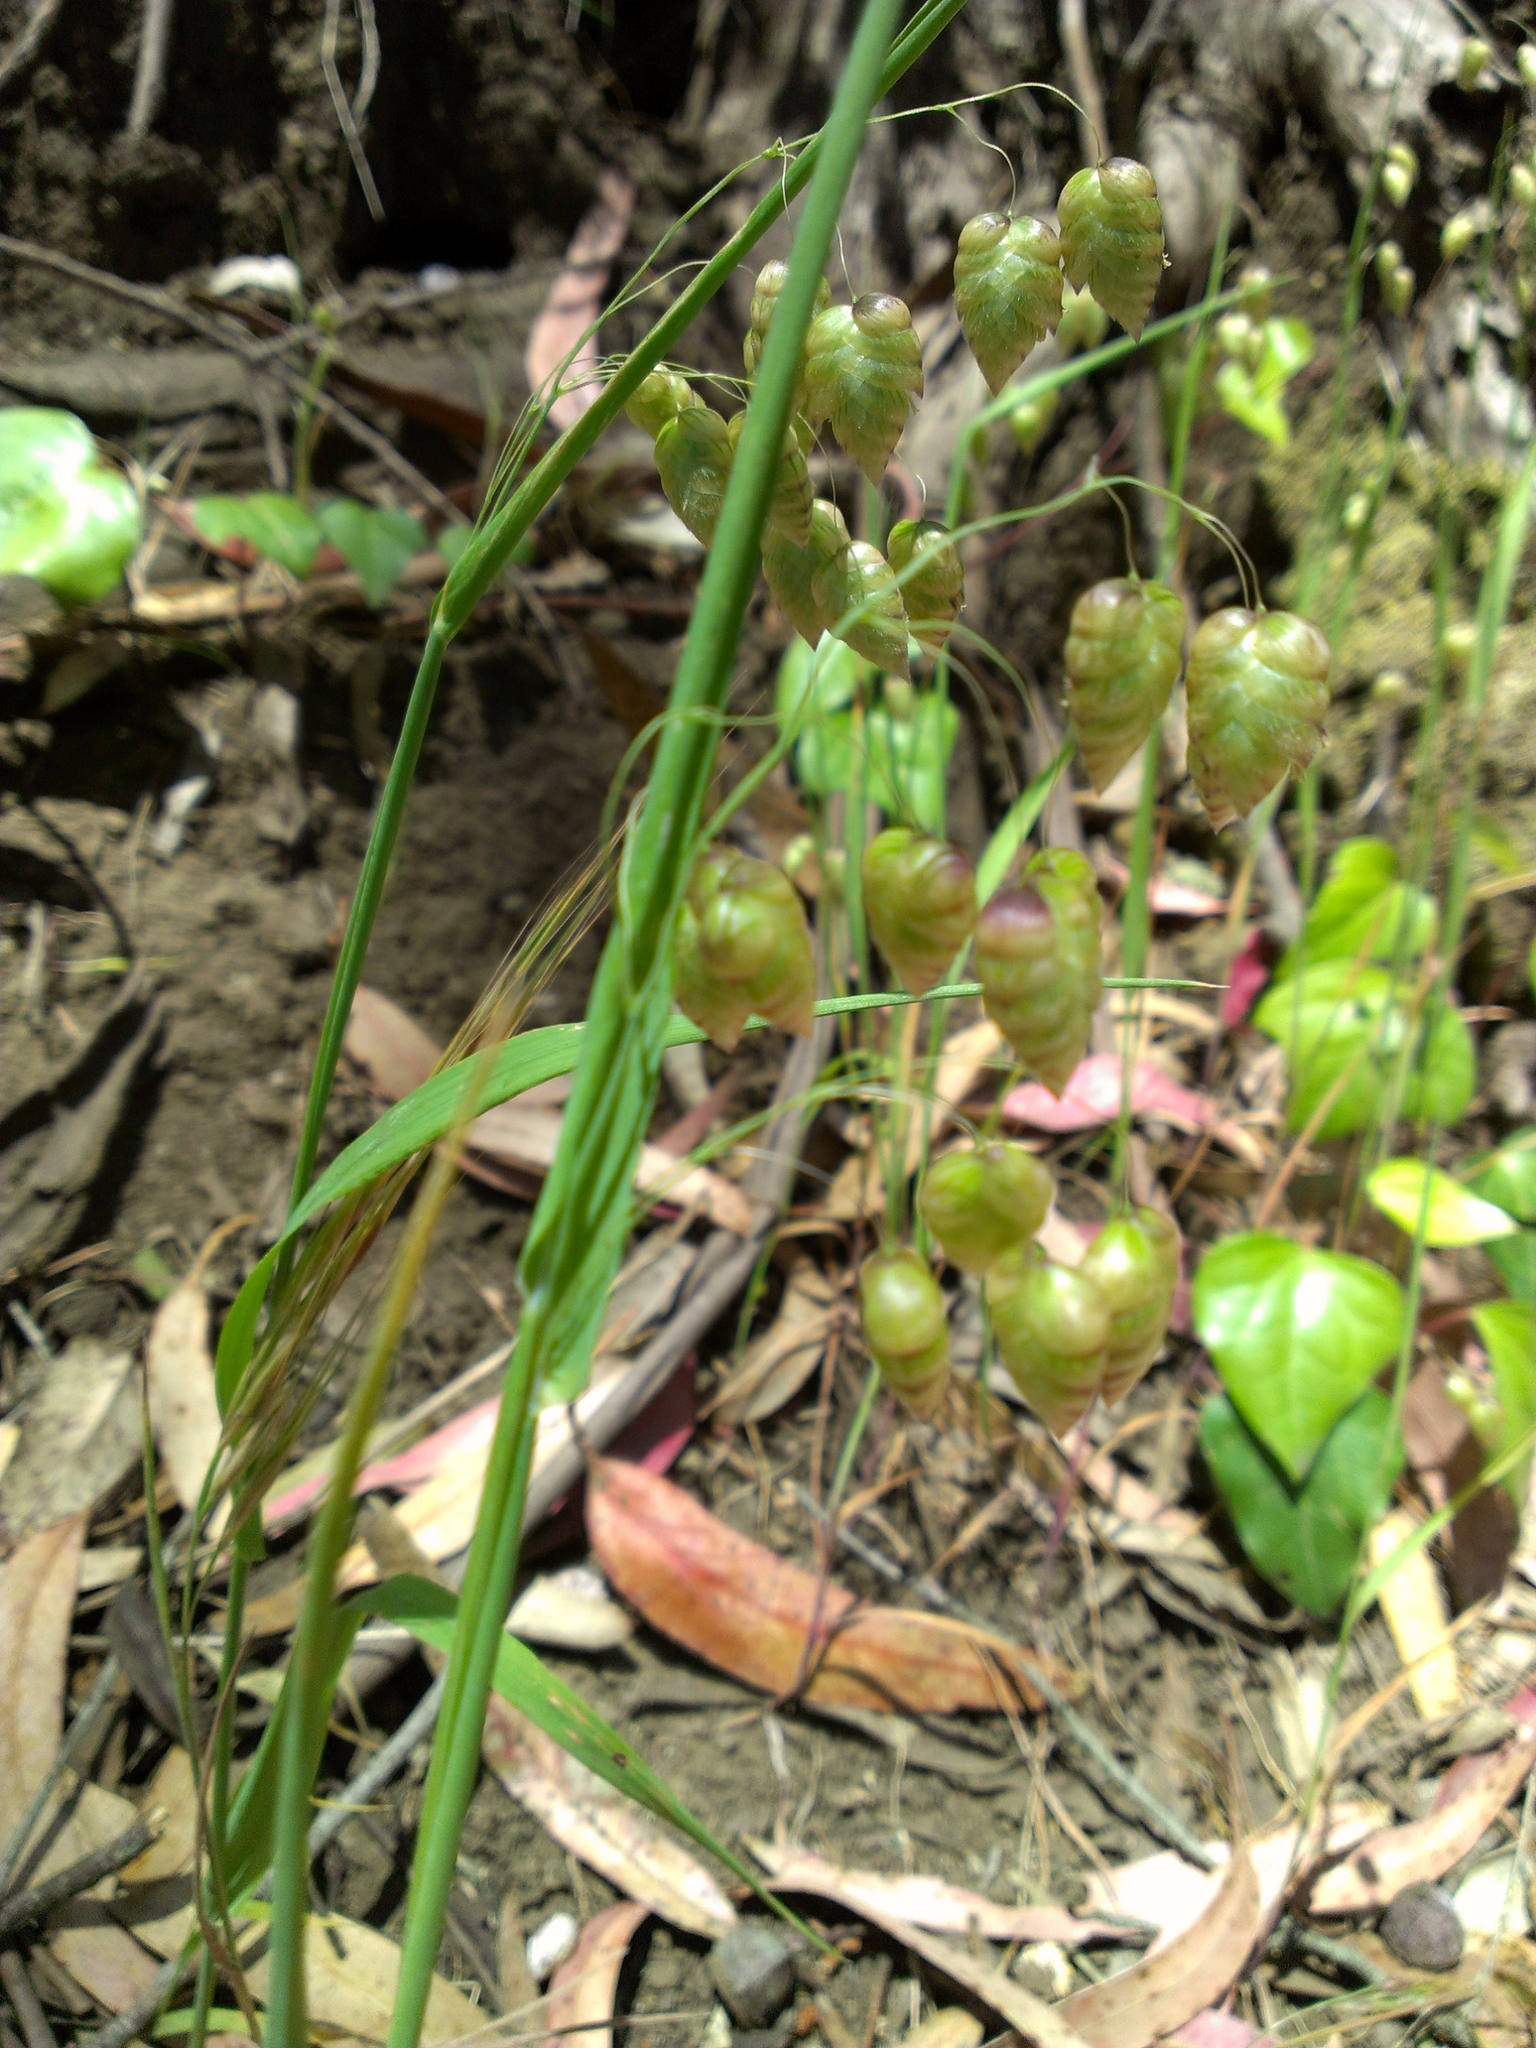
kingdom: Plantae
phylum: Tracheophyta
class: Liliopsida
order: Poales
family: Poaceae
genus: Briza
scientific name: Briza maxima
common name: Big quakinggrass
